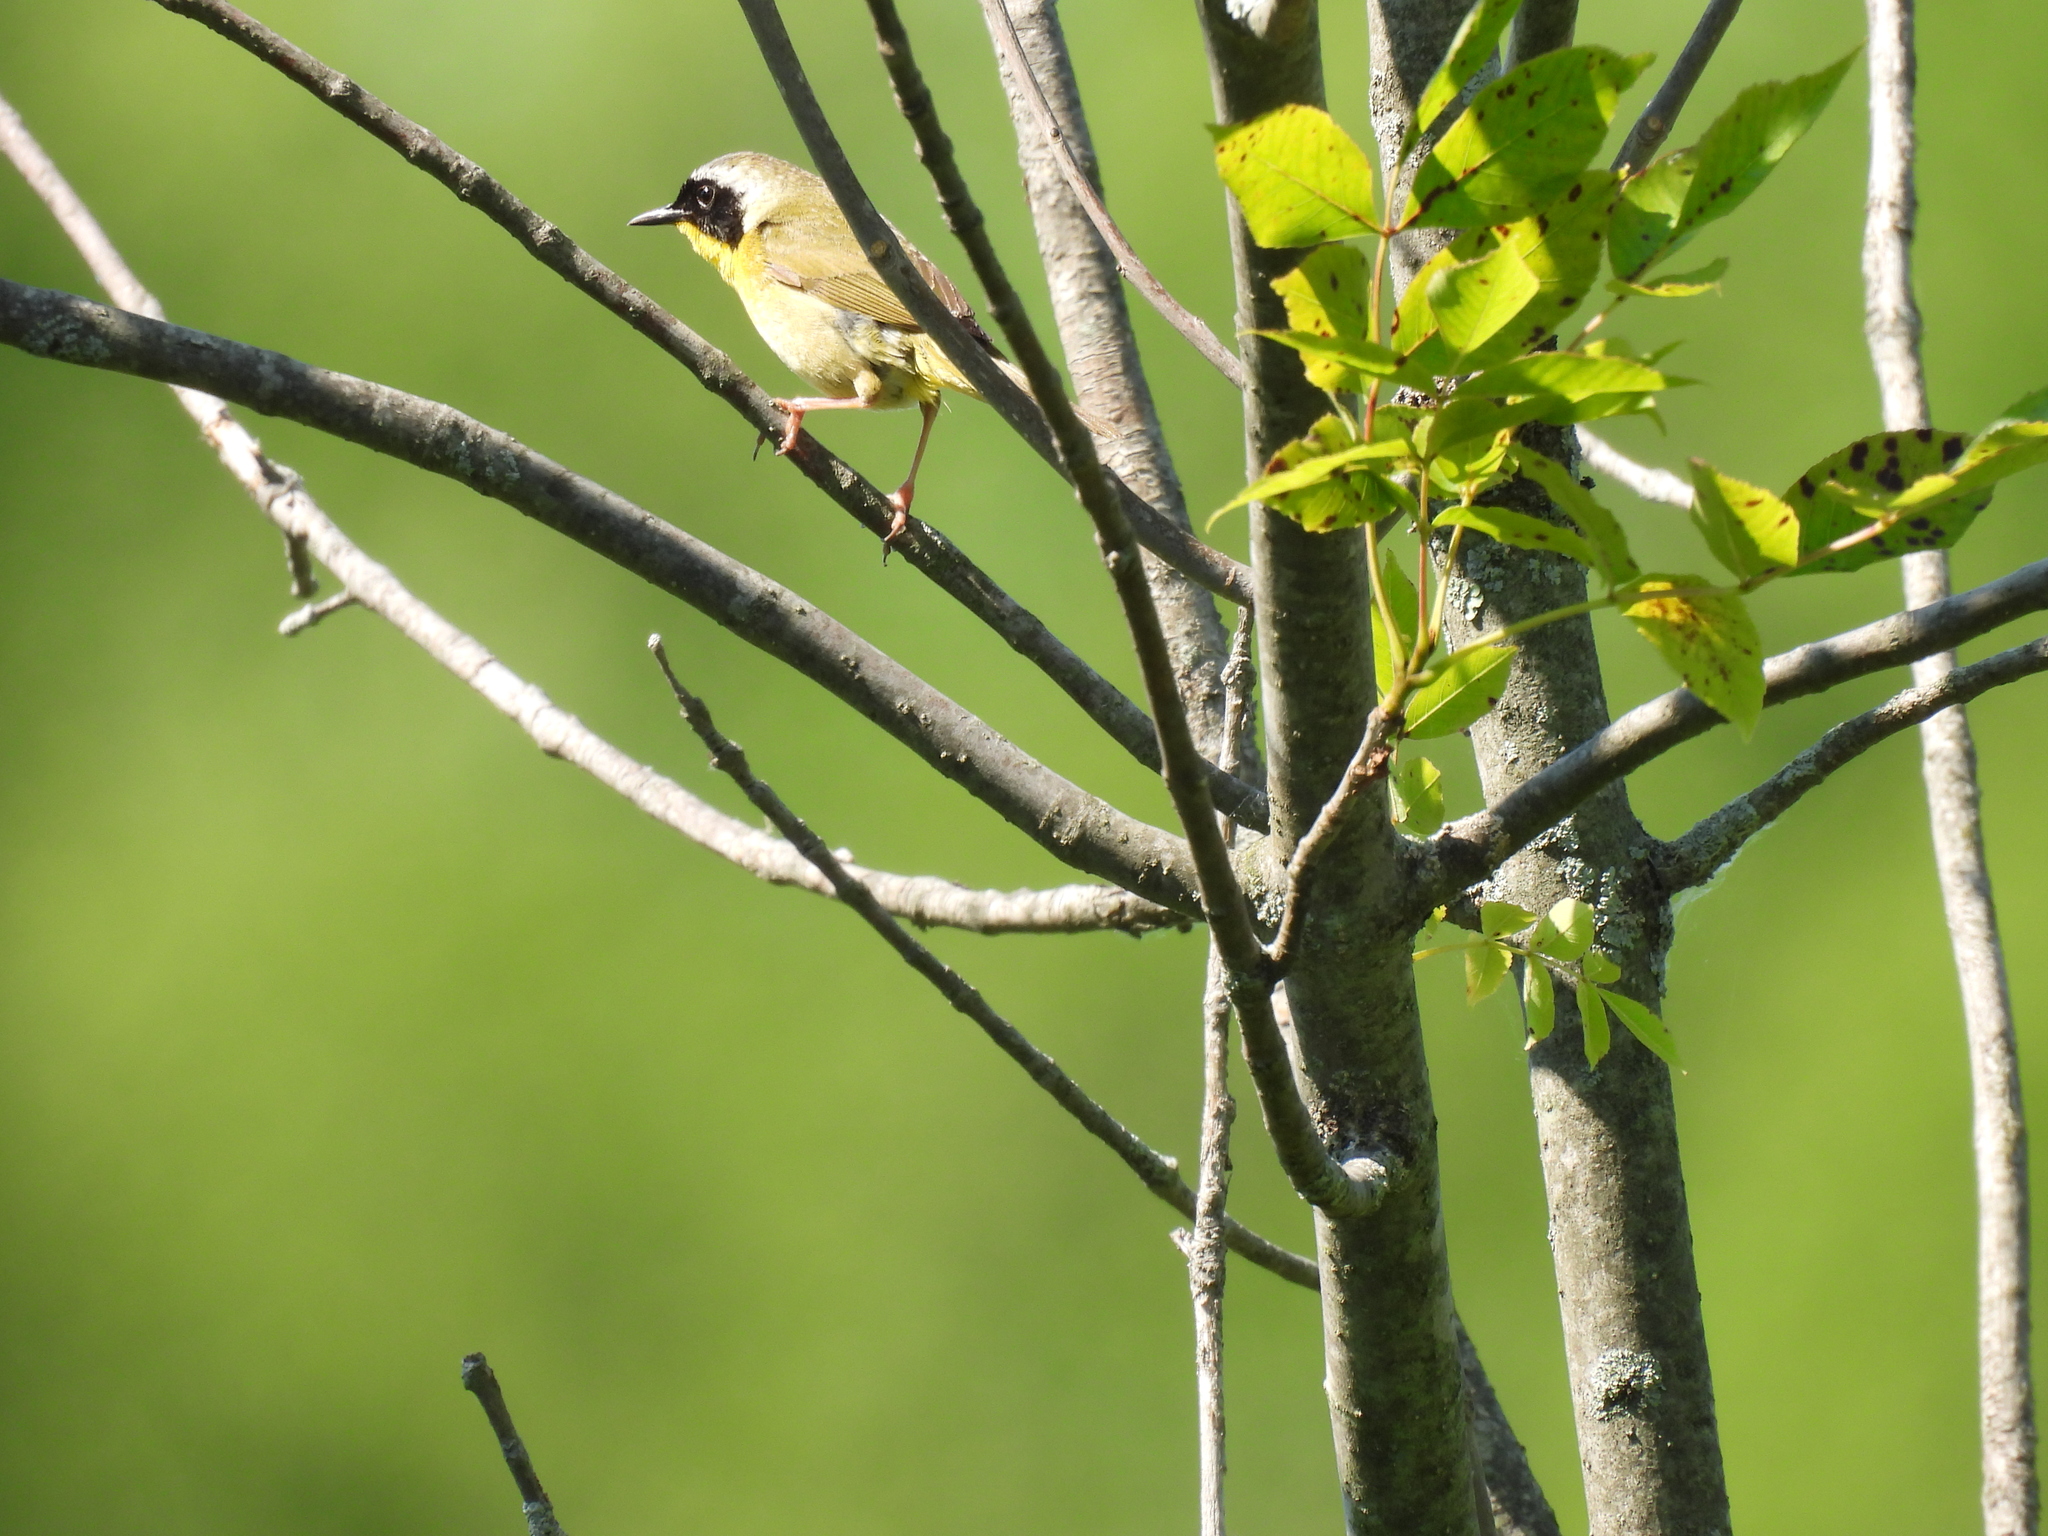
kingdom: Animalia
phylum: Chordata
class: Aves
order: Passeriformes
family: Parulidae
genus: Geothlypis
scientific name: Geothlypis trichas
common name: Common yellowthroat
